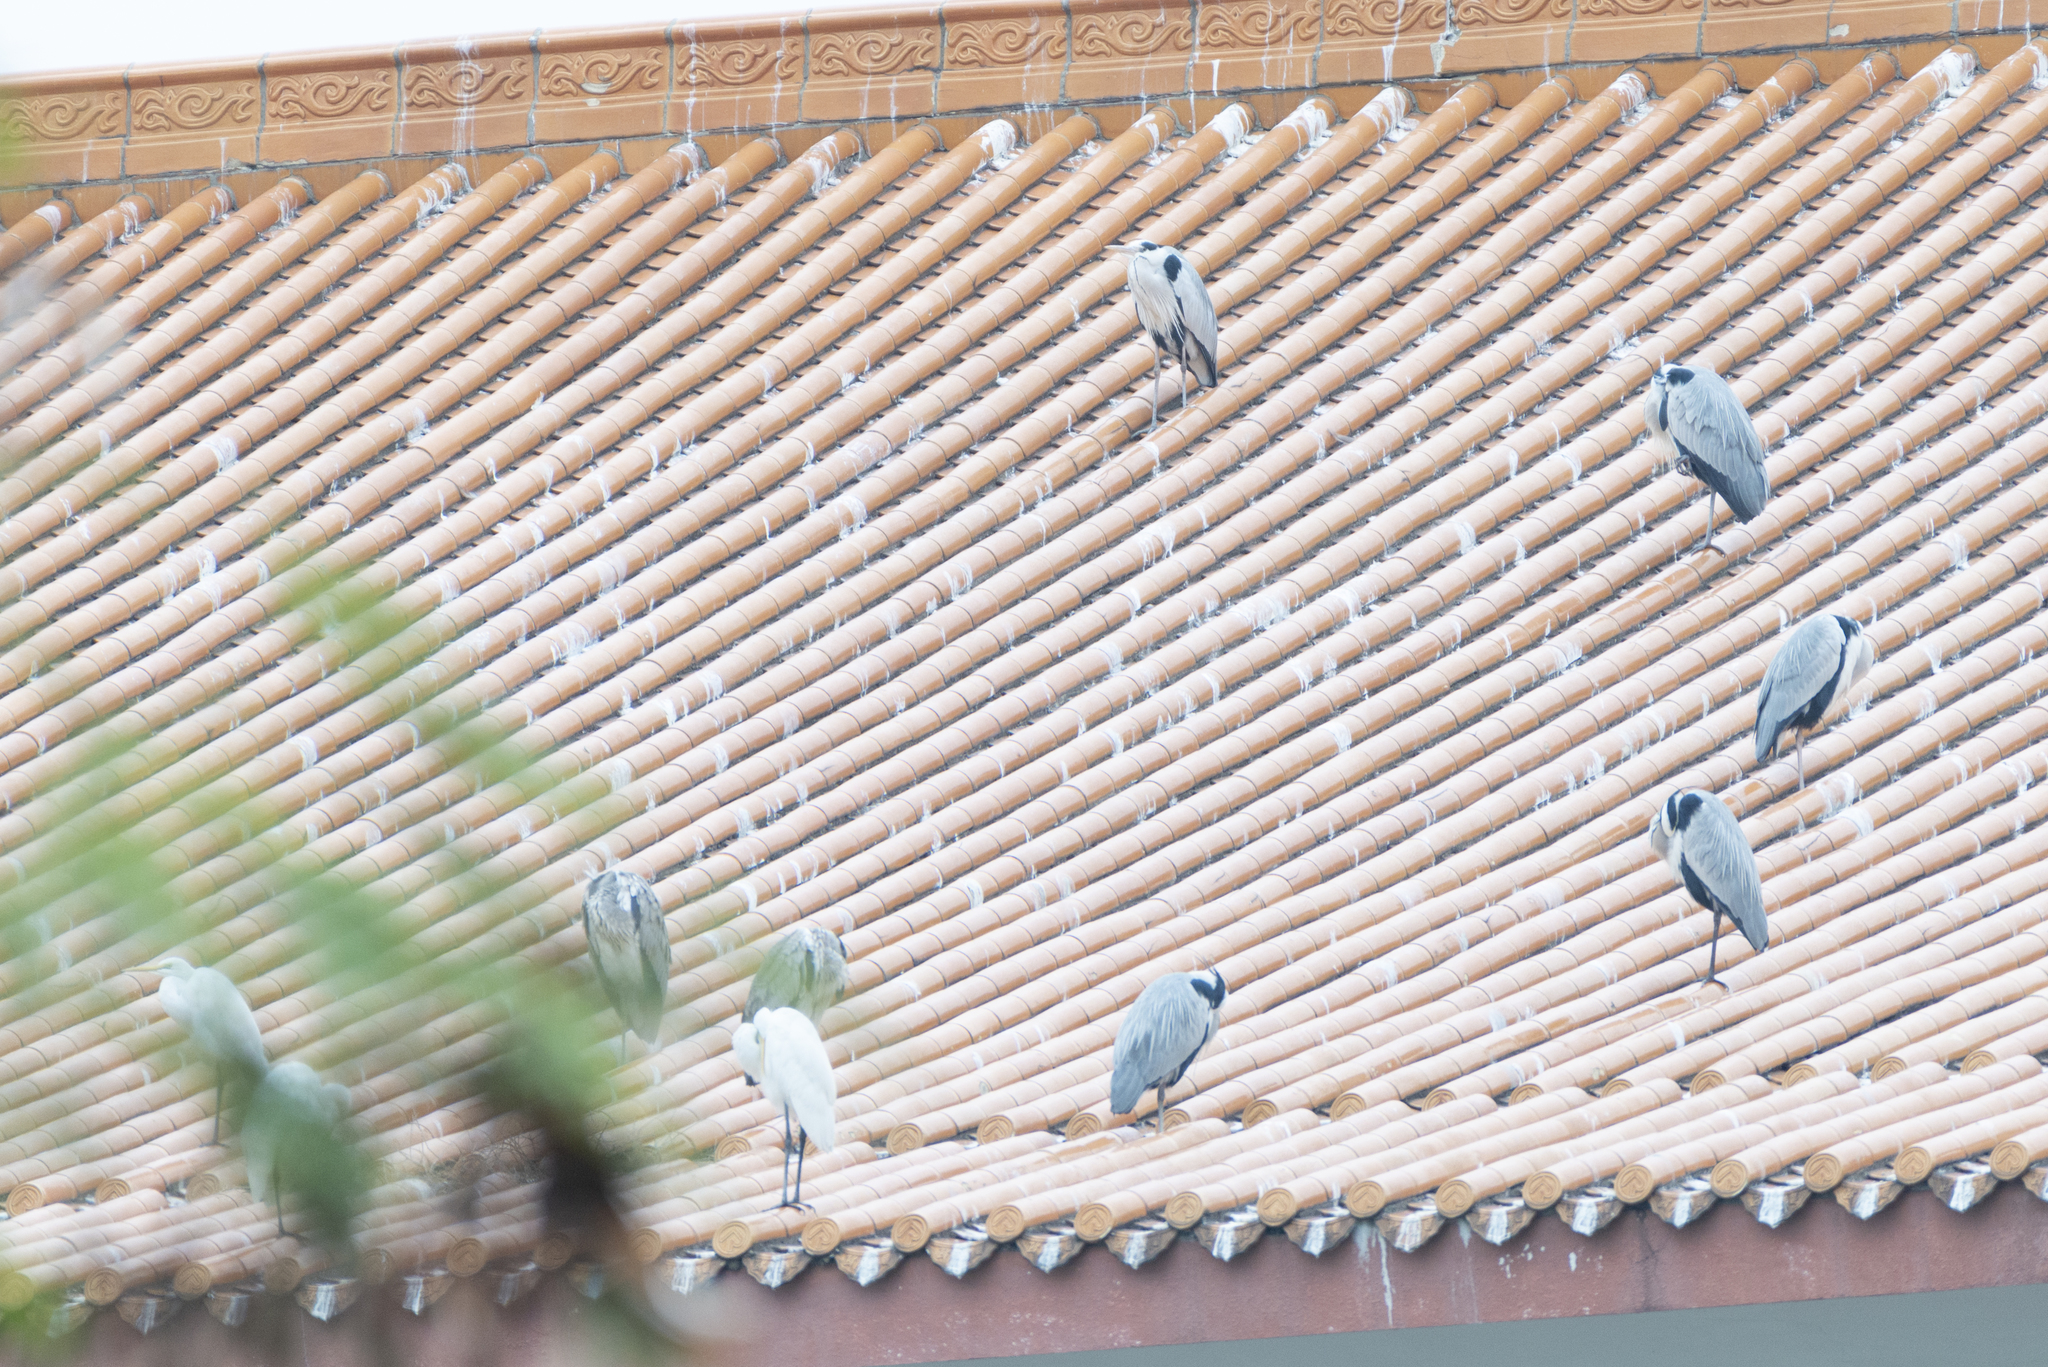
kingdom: Animalia
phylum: Chordata
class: Aves
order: Pelecaniformes
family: Ardeidae
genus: Ardea
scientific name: Ardea cinerea
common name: Grey heron
